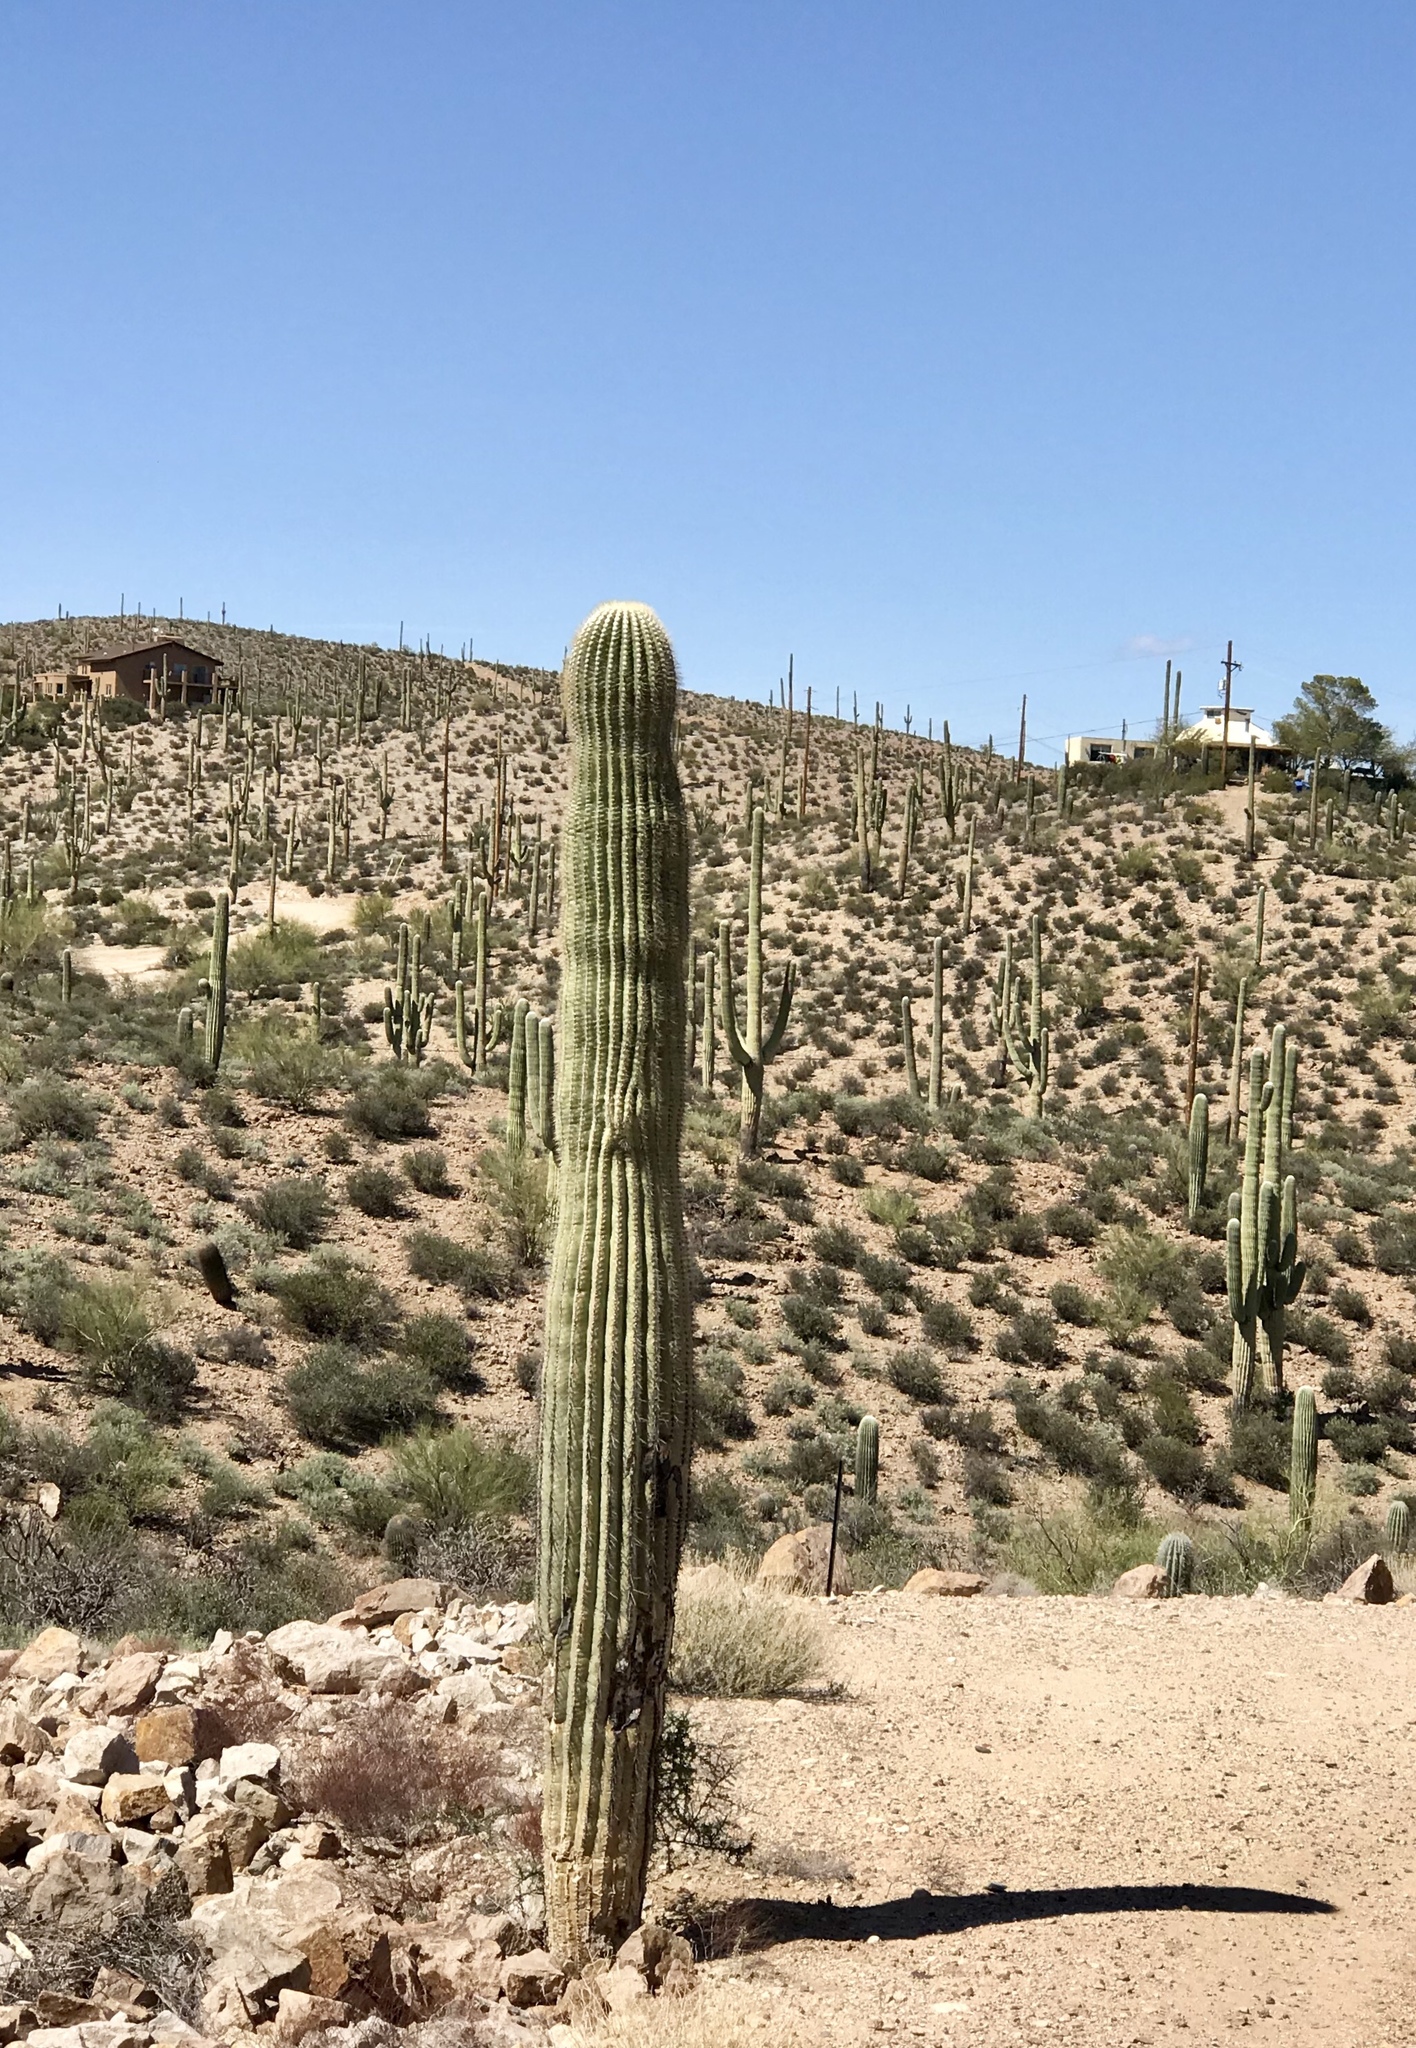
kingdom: Plantae
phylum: Tracheophyta
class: Magnoliopsida
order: Caryophyllales
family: Cactaceae
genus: Carnegiea
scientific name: Carnegiea gigantea
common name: Saguaro
